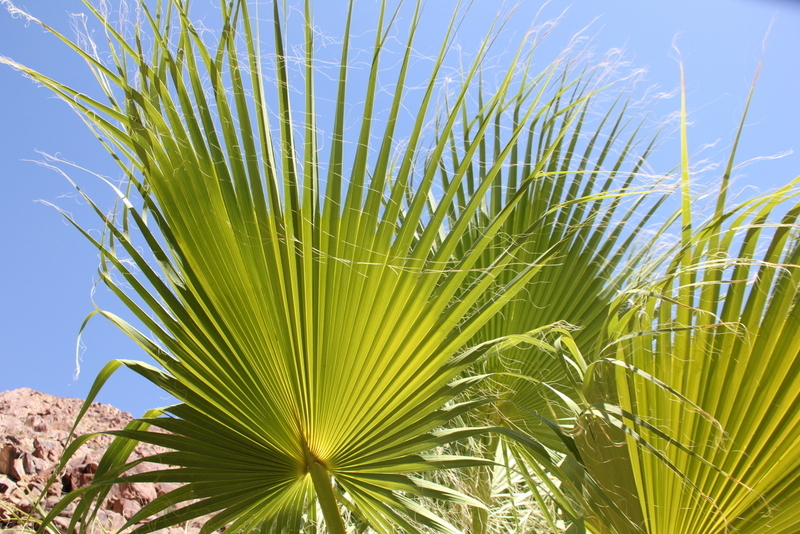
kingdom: Plantae
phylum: Tracheophyta
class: Liliopsida
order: Arecales
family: Arecaceae
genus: Washingtonia
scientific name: Washingtonia filifera
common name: California fan palm
